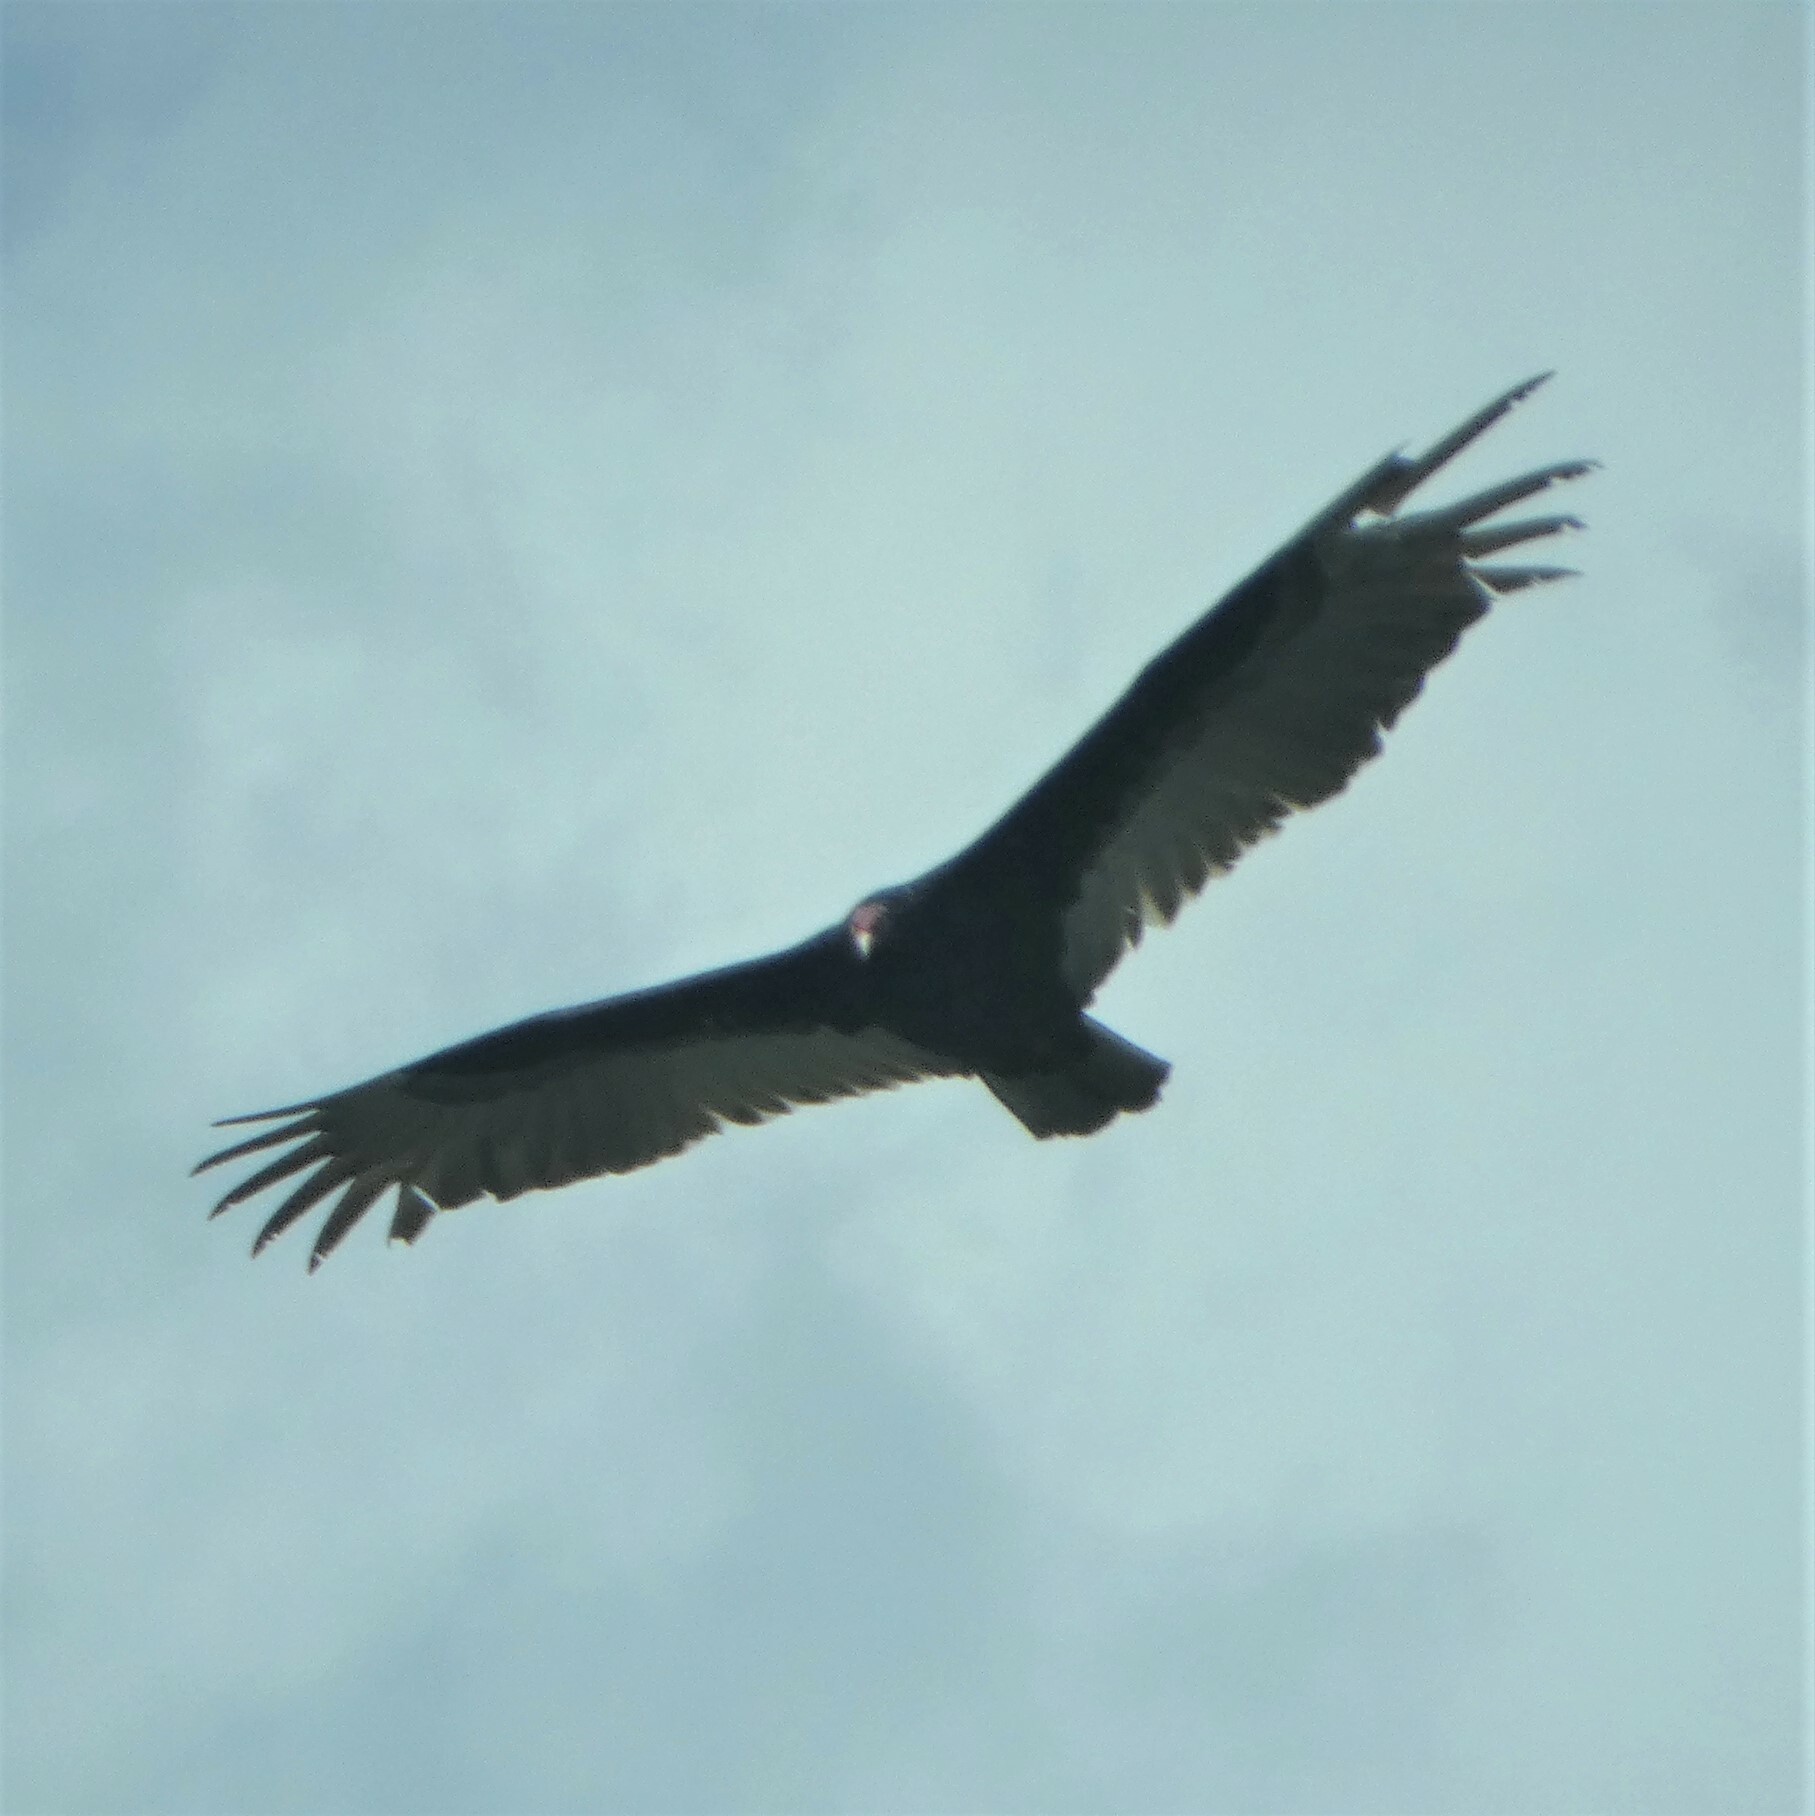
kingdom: Animalia
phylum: Chordata
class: Aves
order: Accipitriformes
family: Cathartidae
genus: Cathartes
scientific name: Cathartes aura
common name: Turkey vulture
